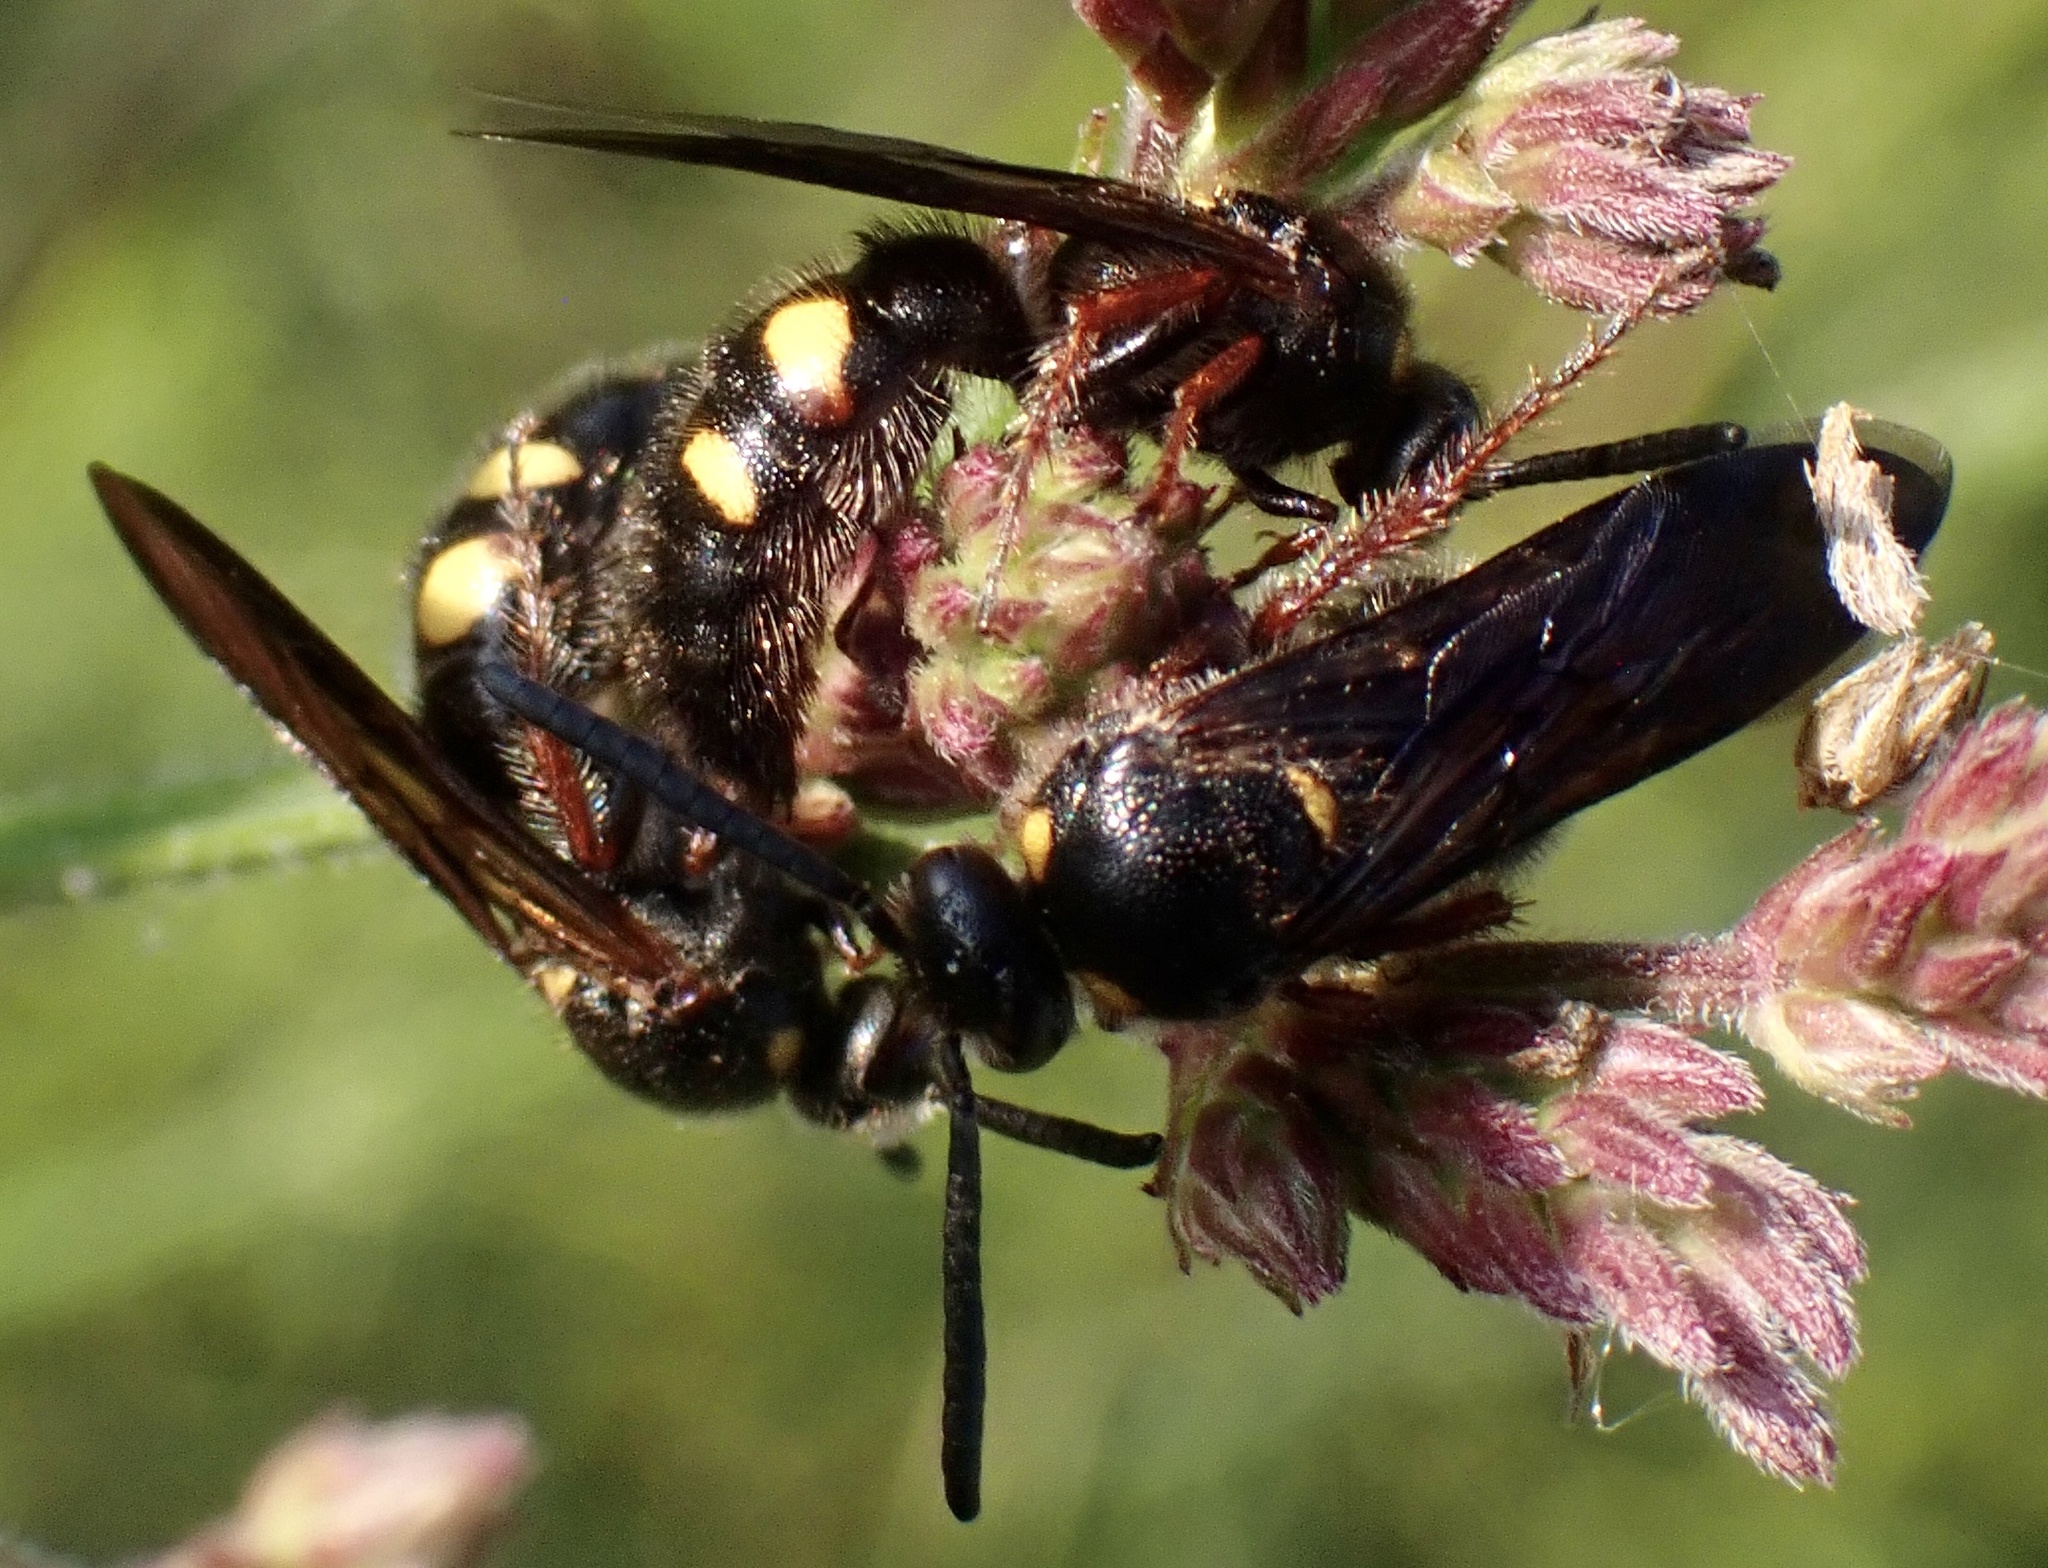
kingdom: Animalia
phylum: Arthropoda
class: Insecta
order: Hymenoptera
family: Scoliidae
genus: Scolia
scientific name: Scolia nobilitata
